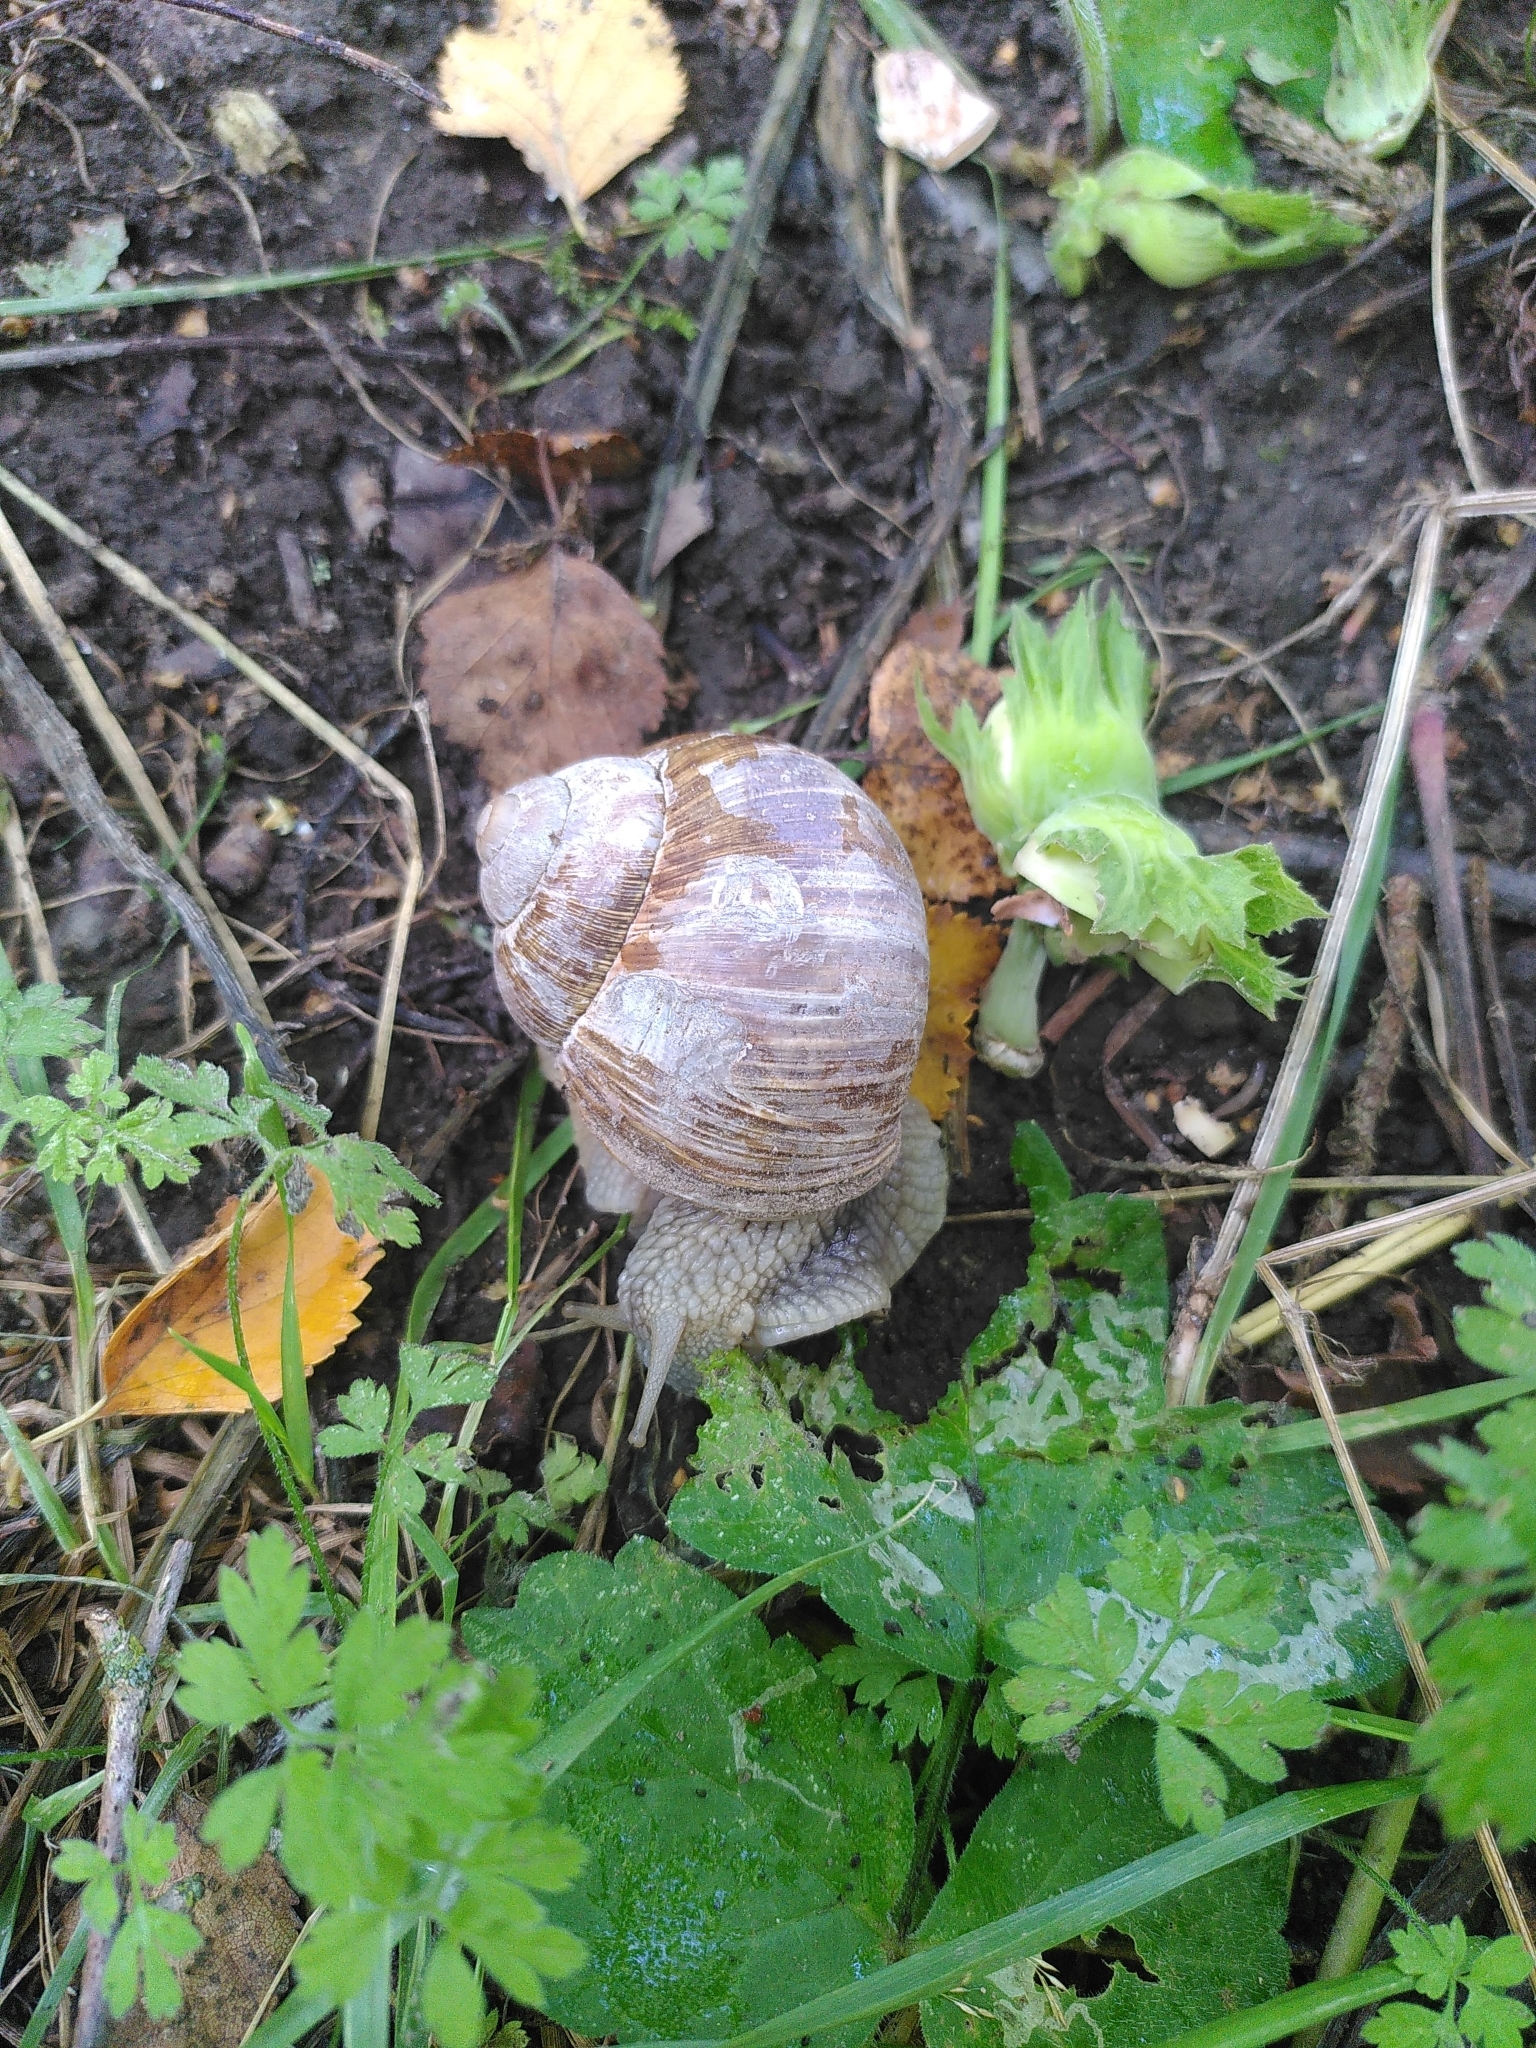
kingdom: Animalia
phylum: Mollusca
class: Gastropoda
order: Stylommatophora
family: Helicidae
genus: Helix
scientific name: Helix pomatia
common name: Roman snail
